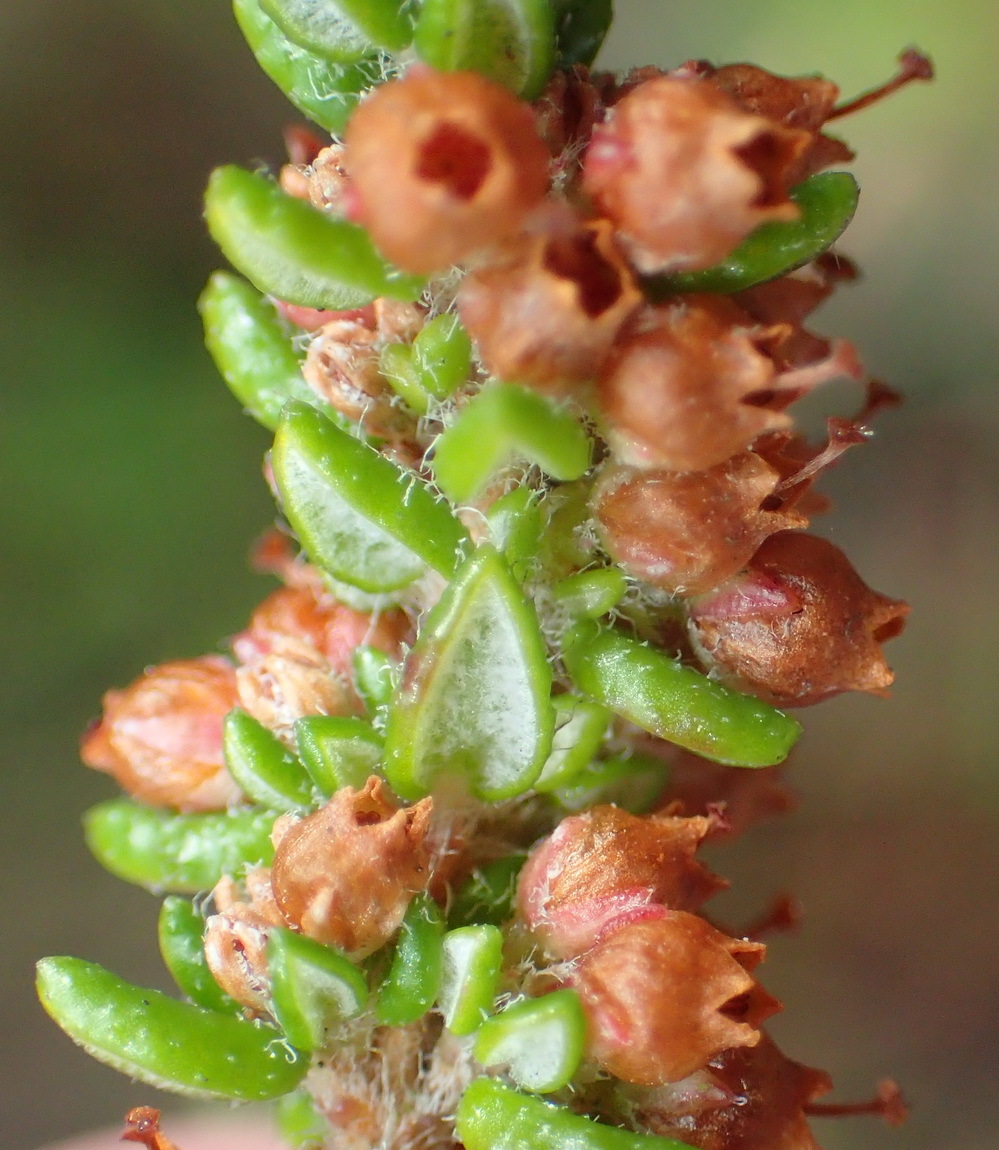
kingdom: Plantae
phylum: Tracheophyta
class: Magnoliopsida
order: Ericales
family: Ericaceae
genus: Erica
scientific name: Erica cordata
